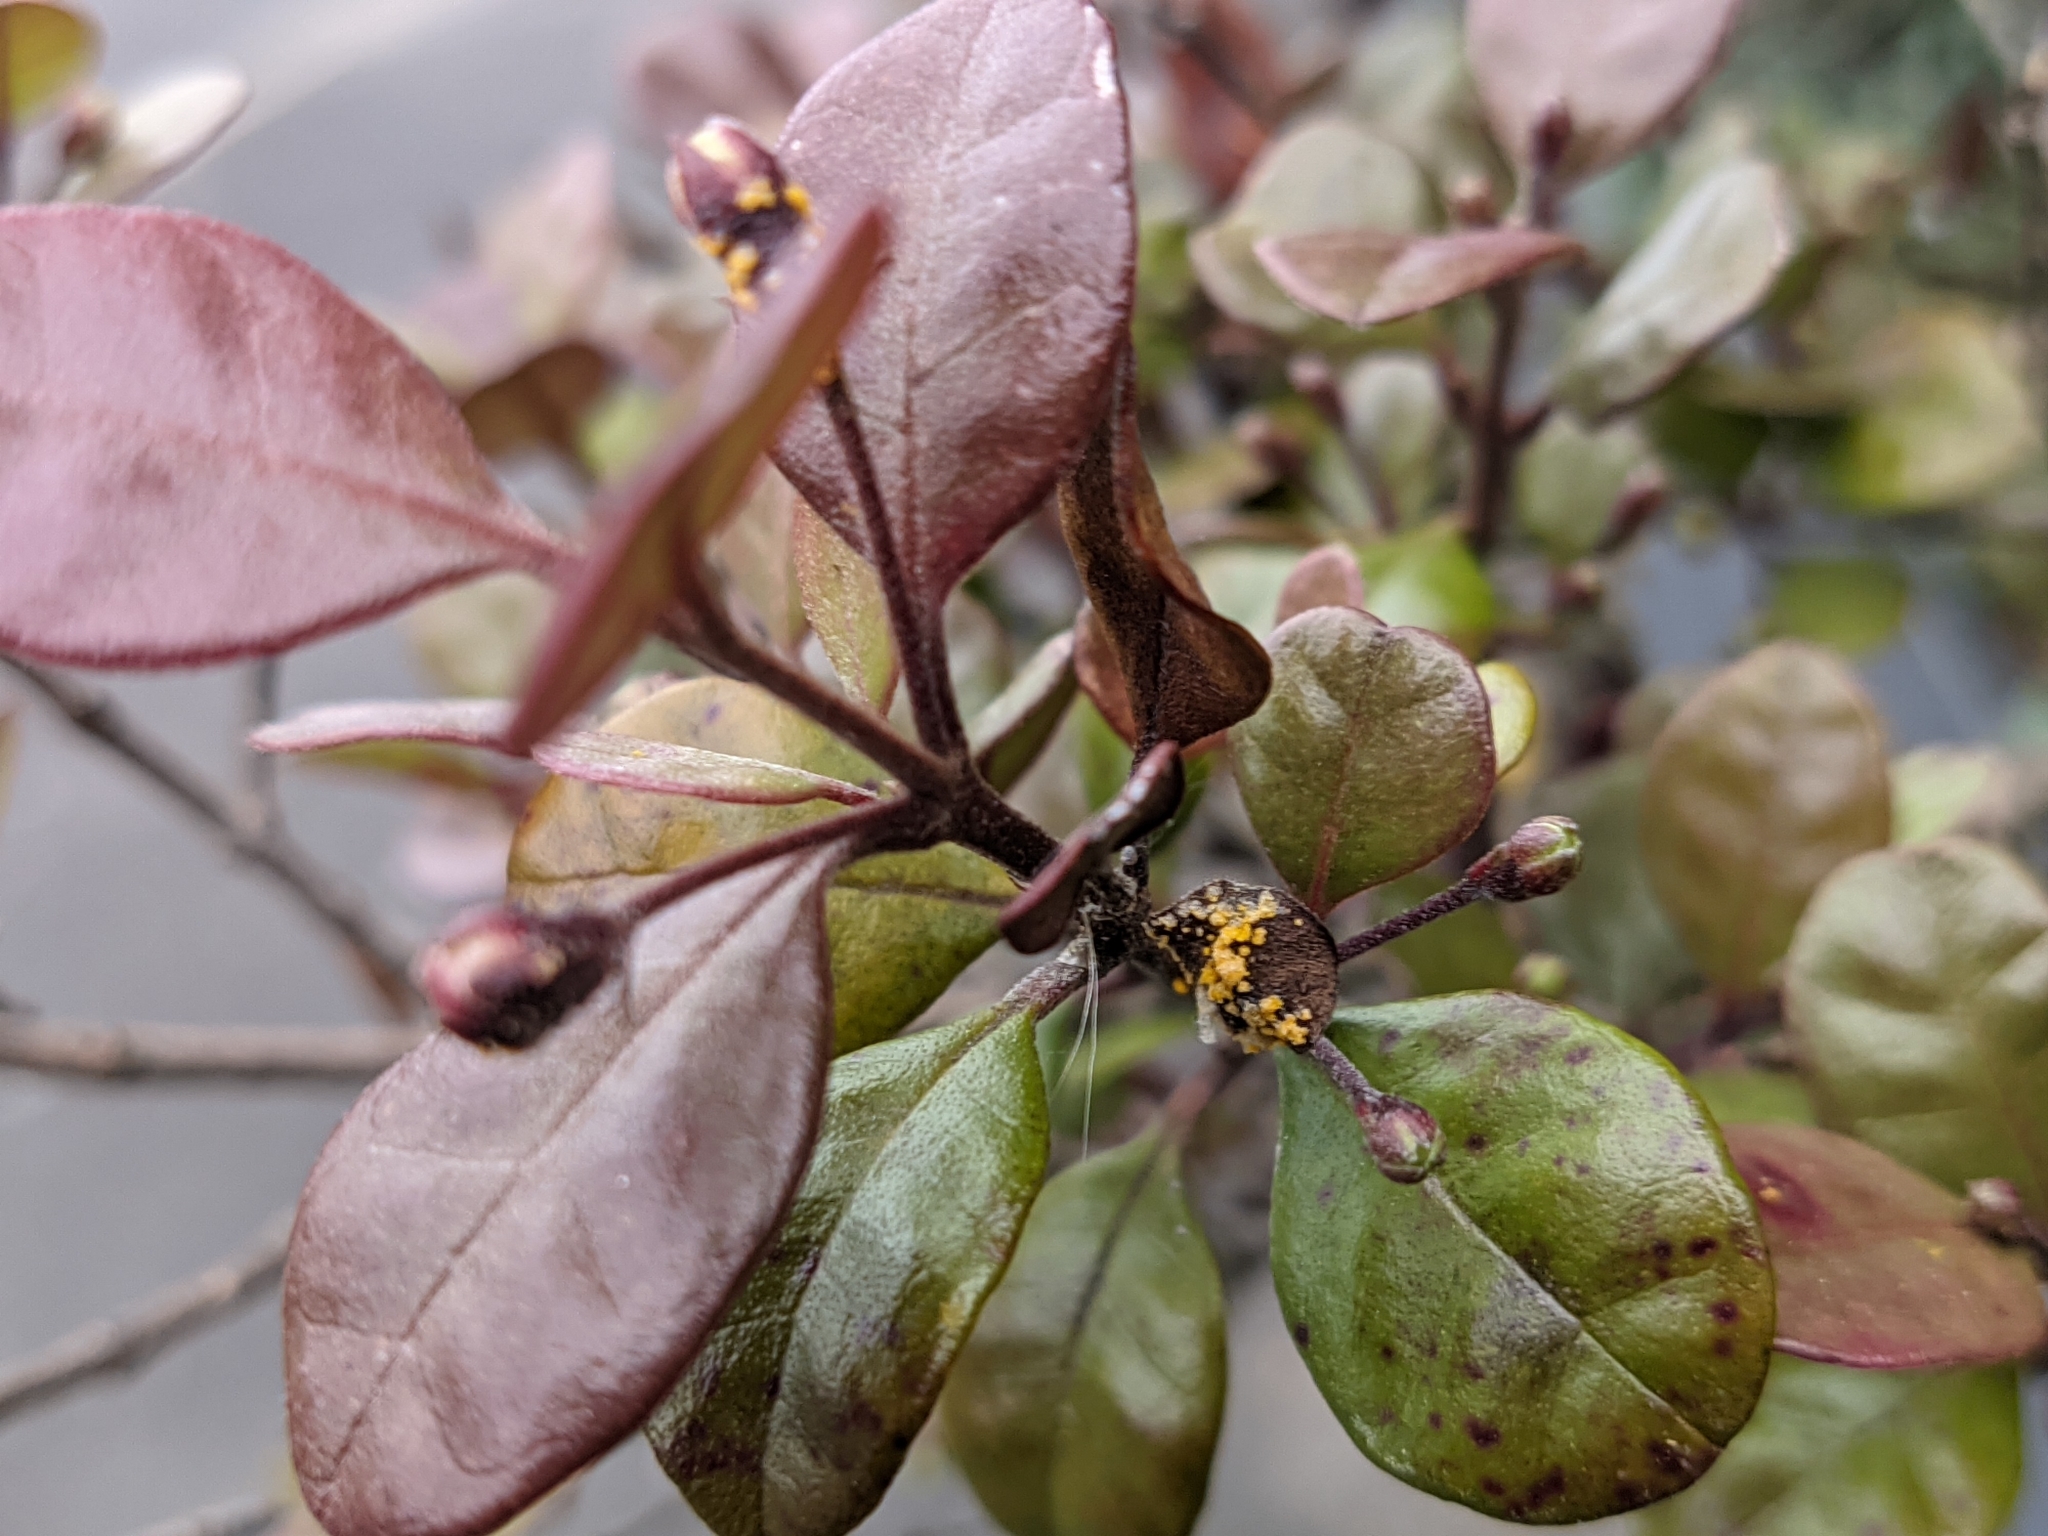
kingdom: Fungi
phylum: Basidiomycota
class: Pucciniomycetes
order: Pucciniales
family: Sphaerophragmiaceae
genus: Austropuccinia
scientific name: Austropuccinia psidii
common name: Myrtle rust
